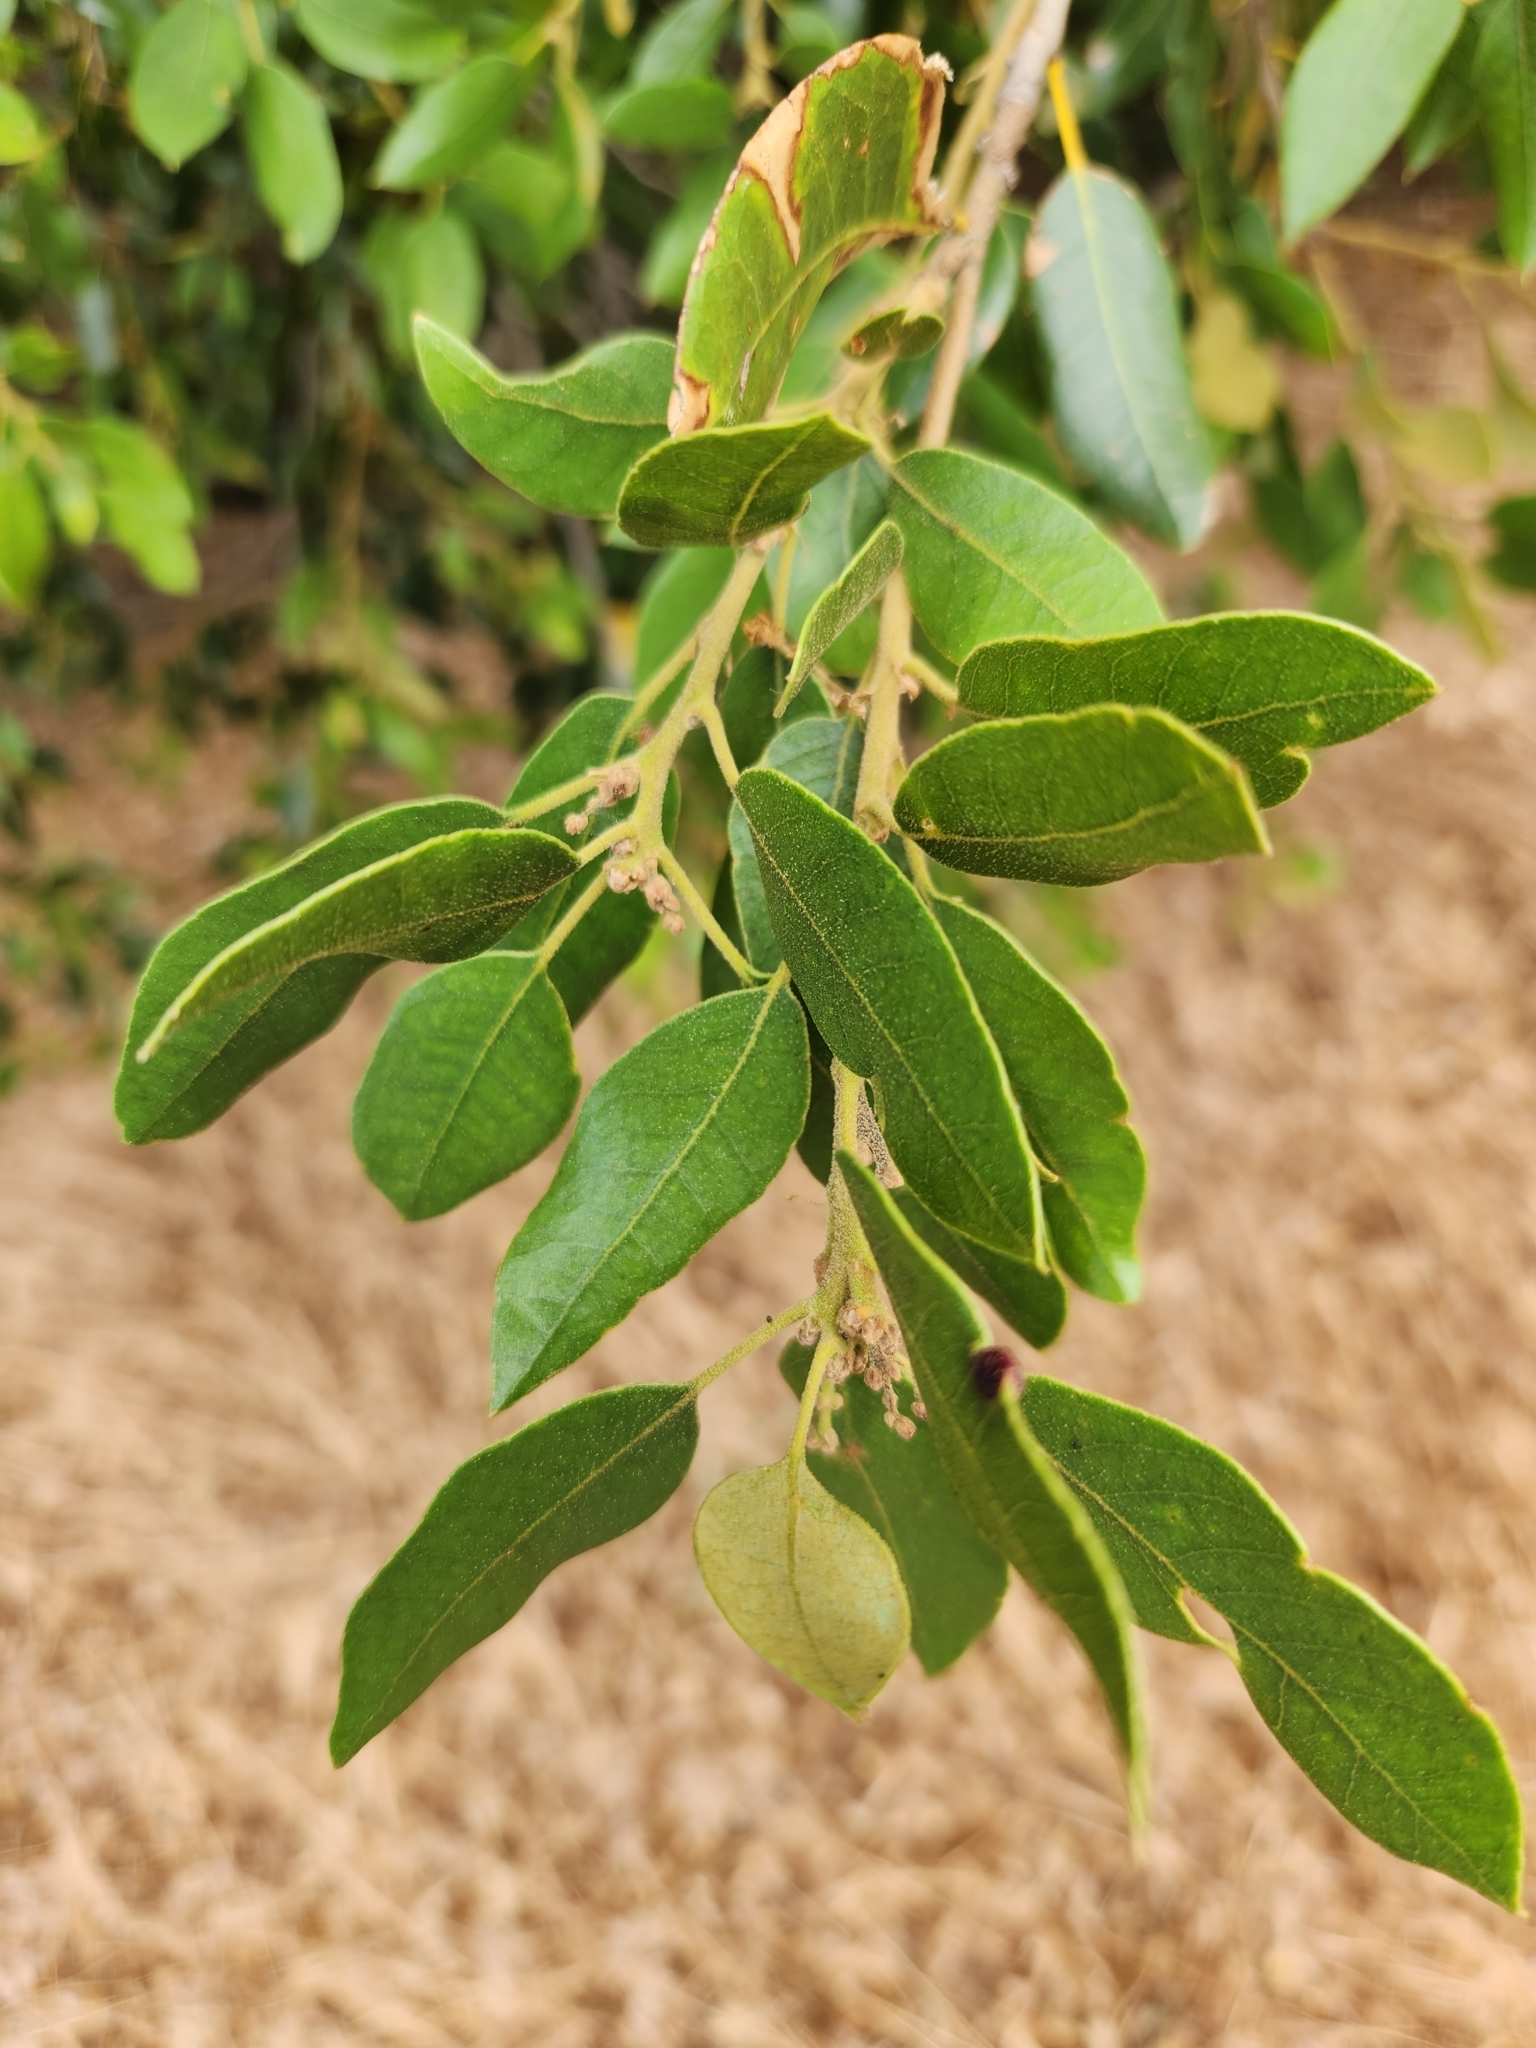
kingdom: Plantae
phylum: Tracheophyta
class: Magnoliopsida
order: Fagales
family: Fagaceae
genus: Quercus
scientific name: Quercus chrysolepis
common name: Canyon live oak
